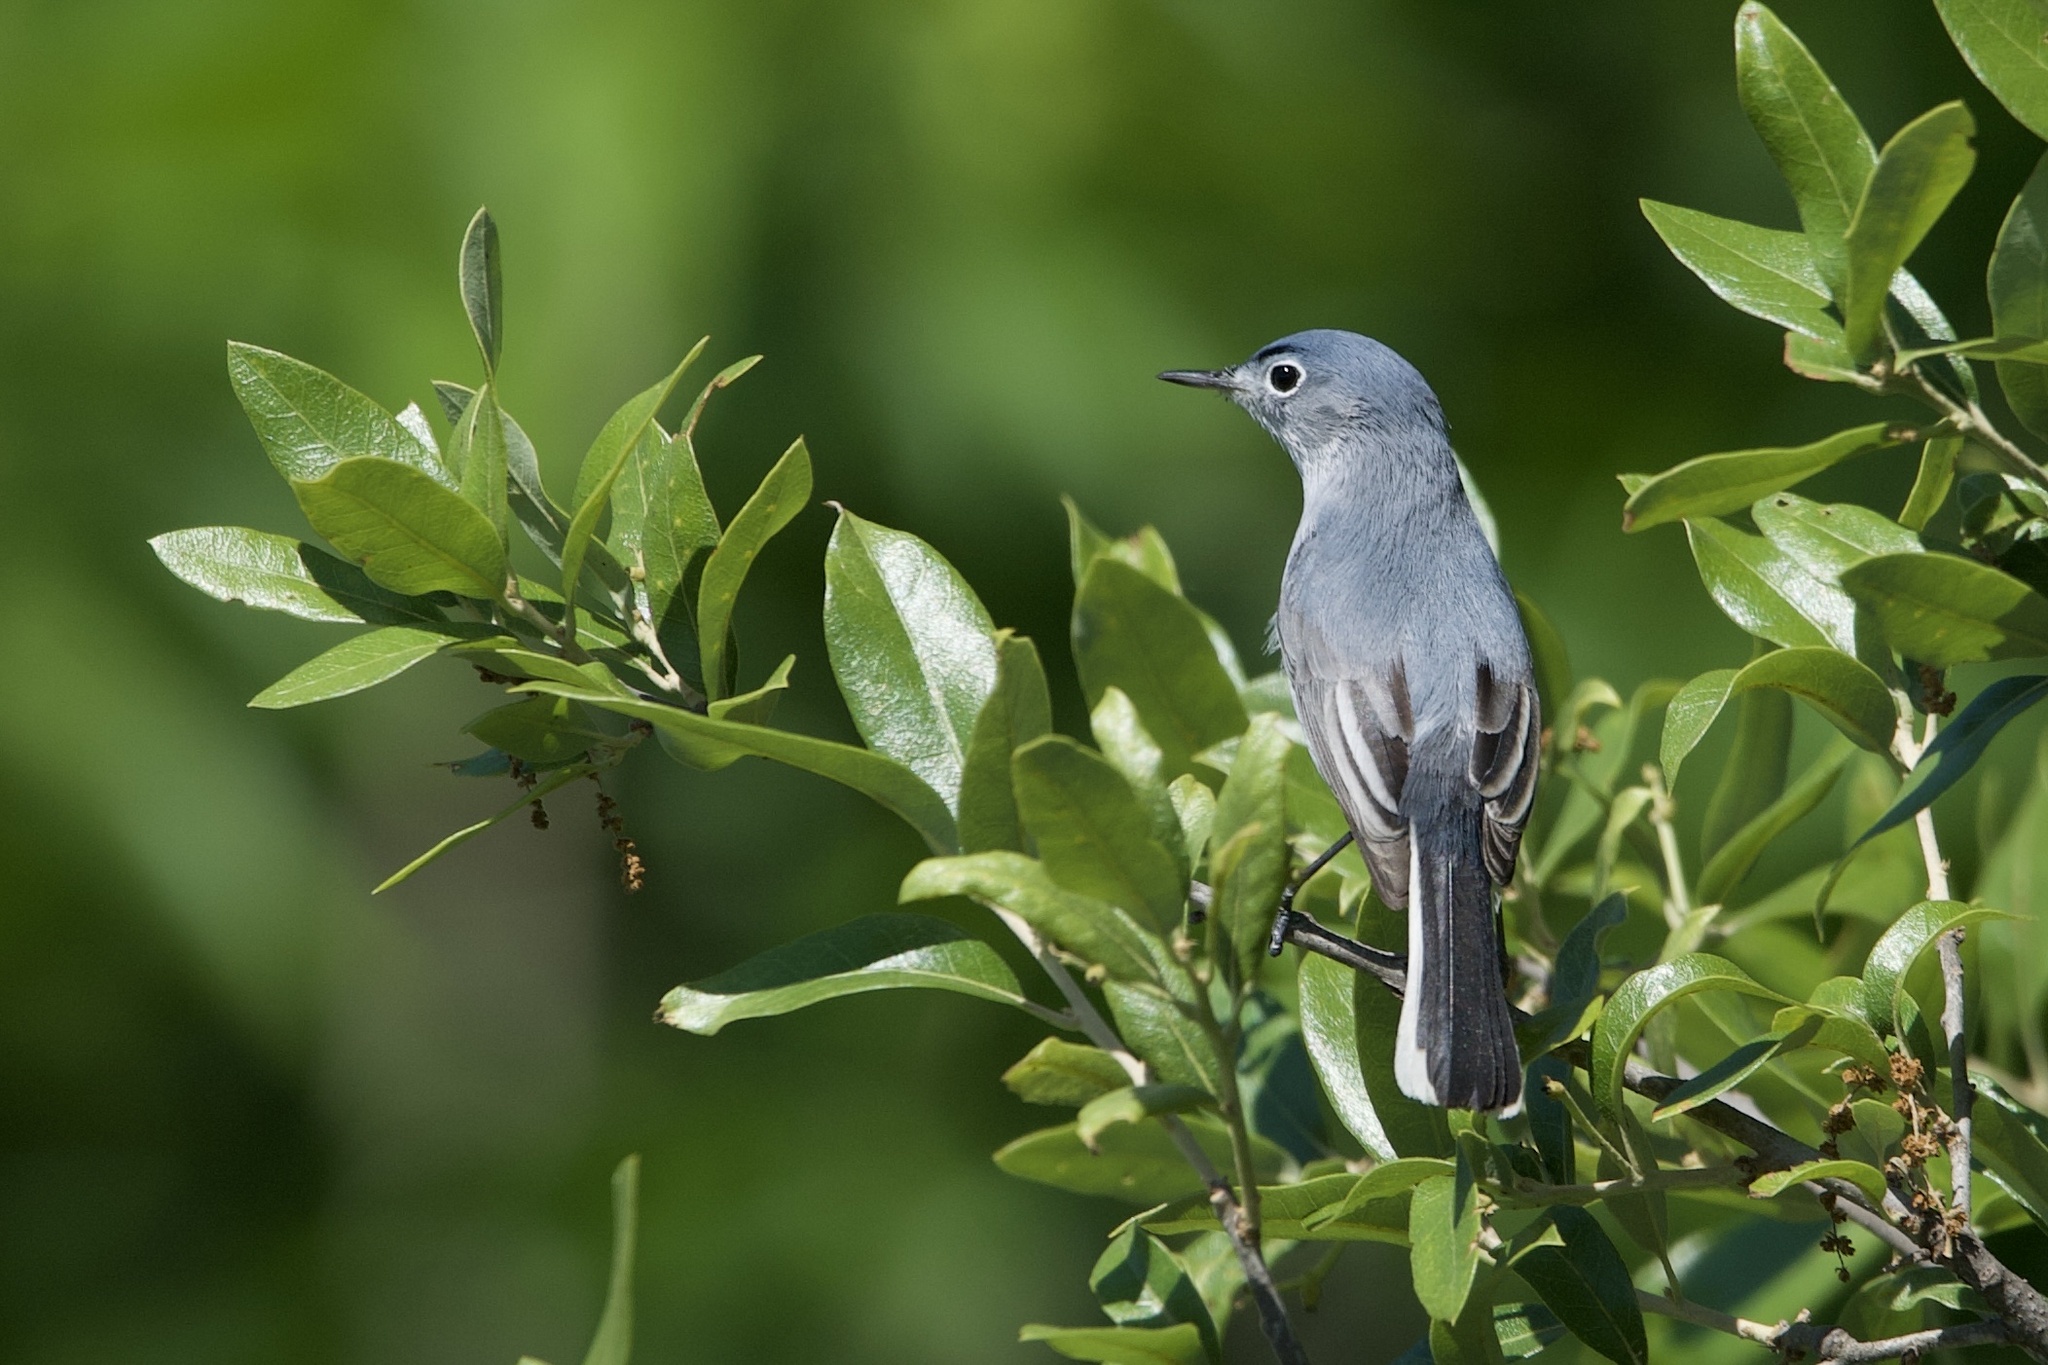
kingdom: Animalia
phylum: Chordata
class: Aves
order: Passeriformes
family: Polioptilidae
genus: Polioptila
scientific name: Polioptila caerulea
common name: Blue-gray gnatcatcher
